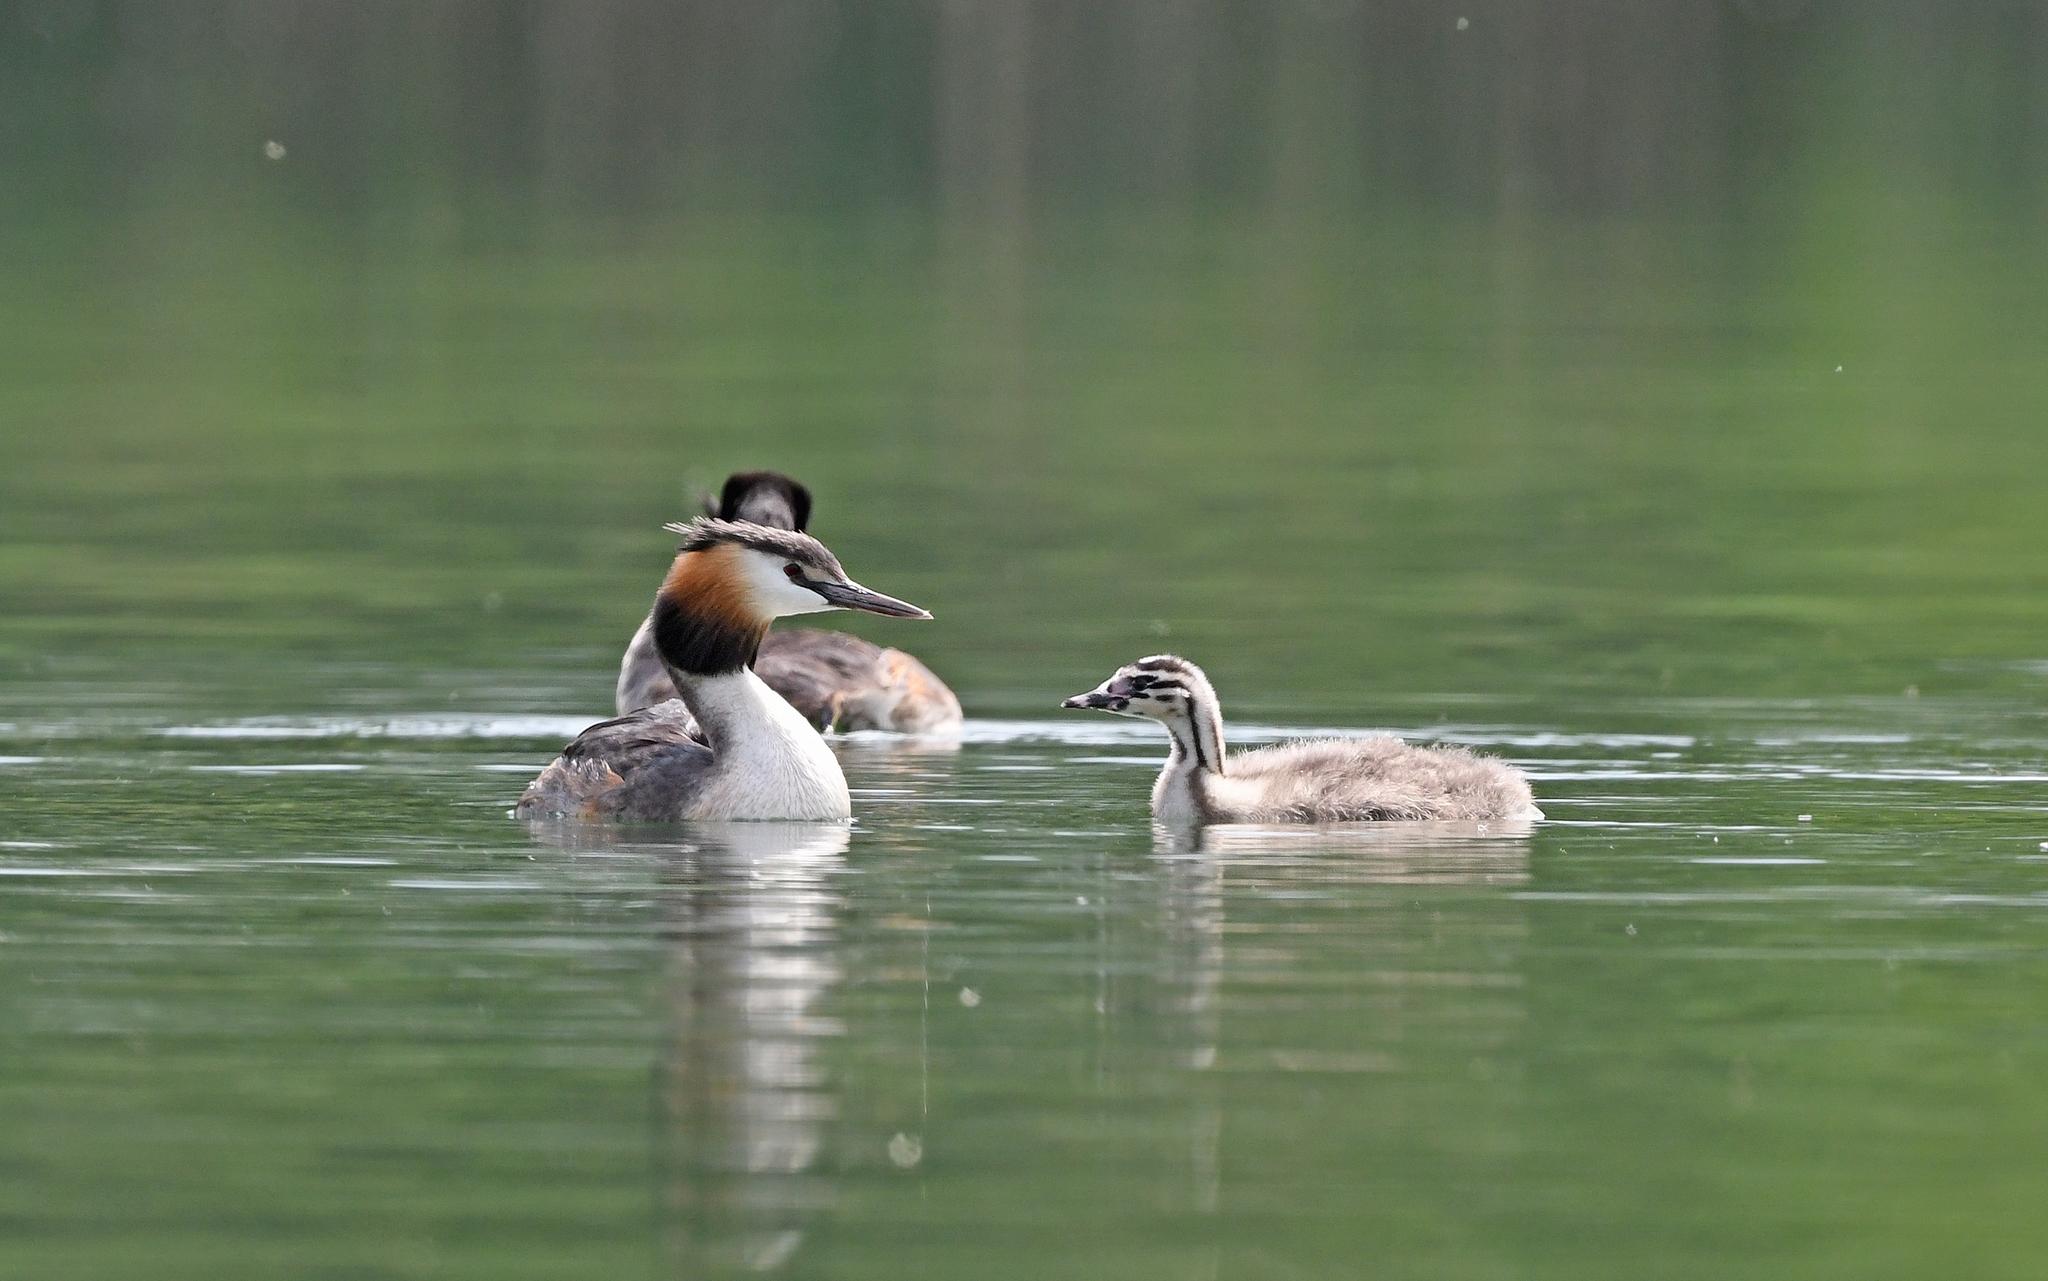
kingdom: Animalia
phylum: Chordata
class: Aves
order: Podicipediformes
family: Podicipedidae
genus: Podiceps
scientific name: Podiceps cristatus
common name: Great crested grebe
